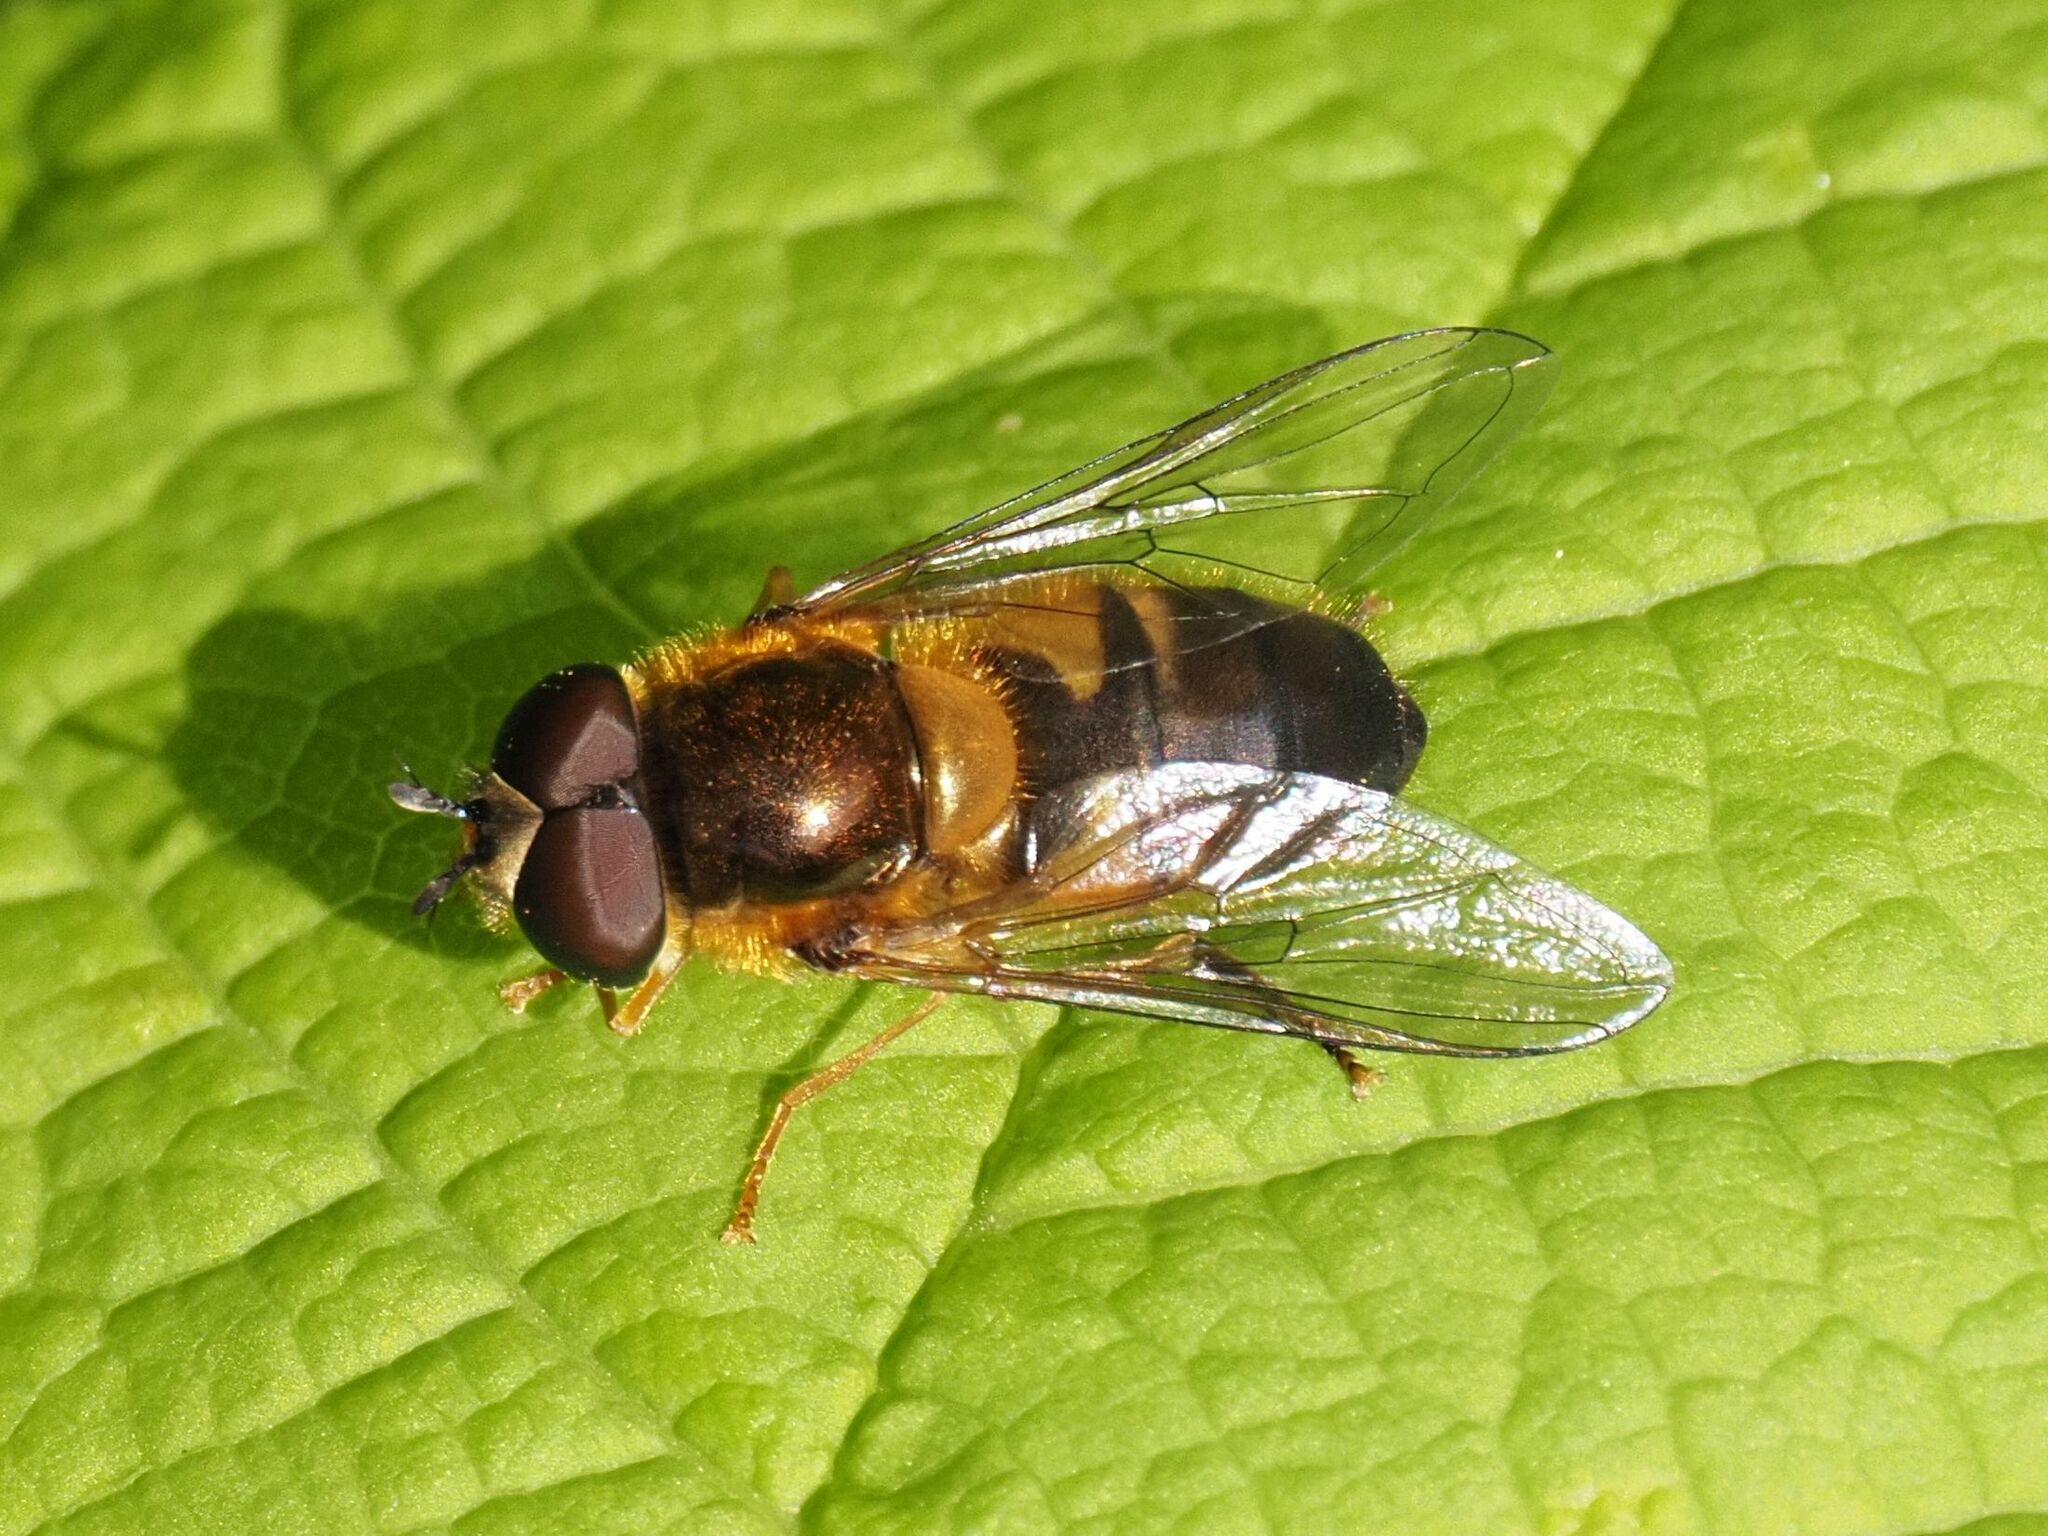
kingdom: Animalia
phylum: Arthropoda
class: Insecta
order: Diptera
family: Syrphidae
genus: Epistrophe
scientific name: Epistrophe eligans
